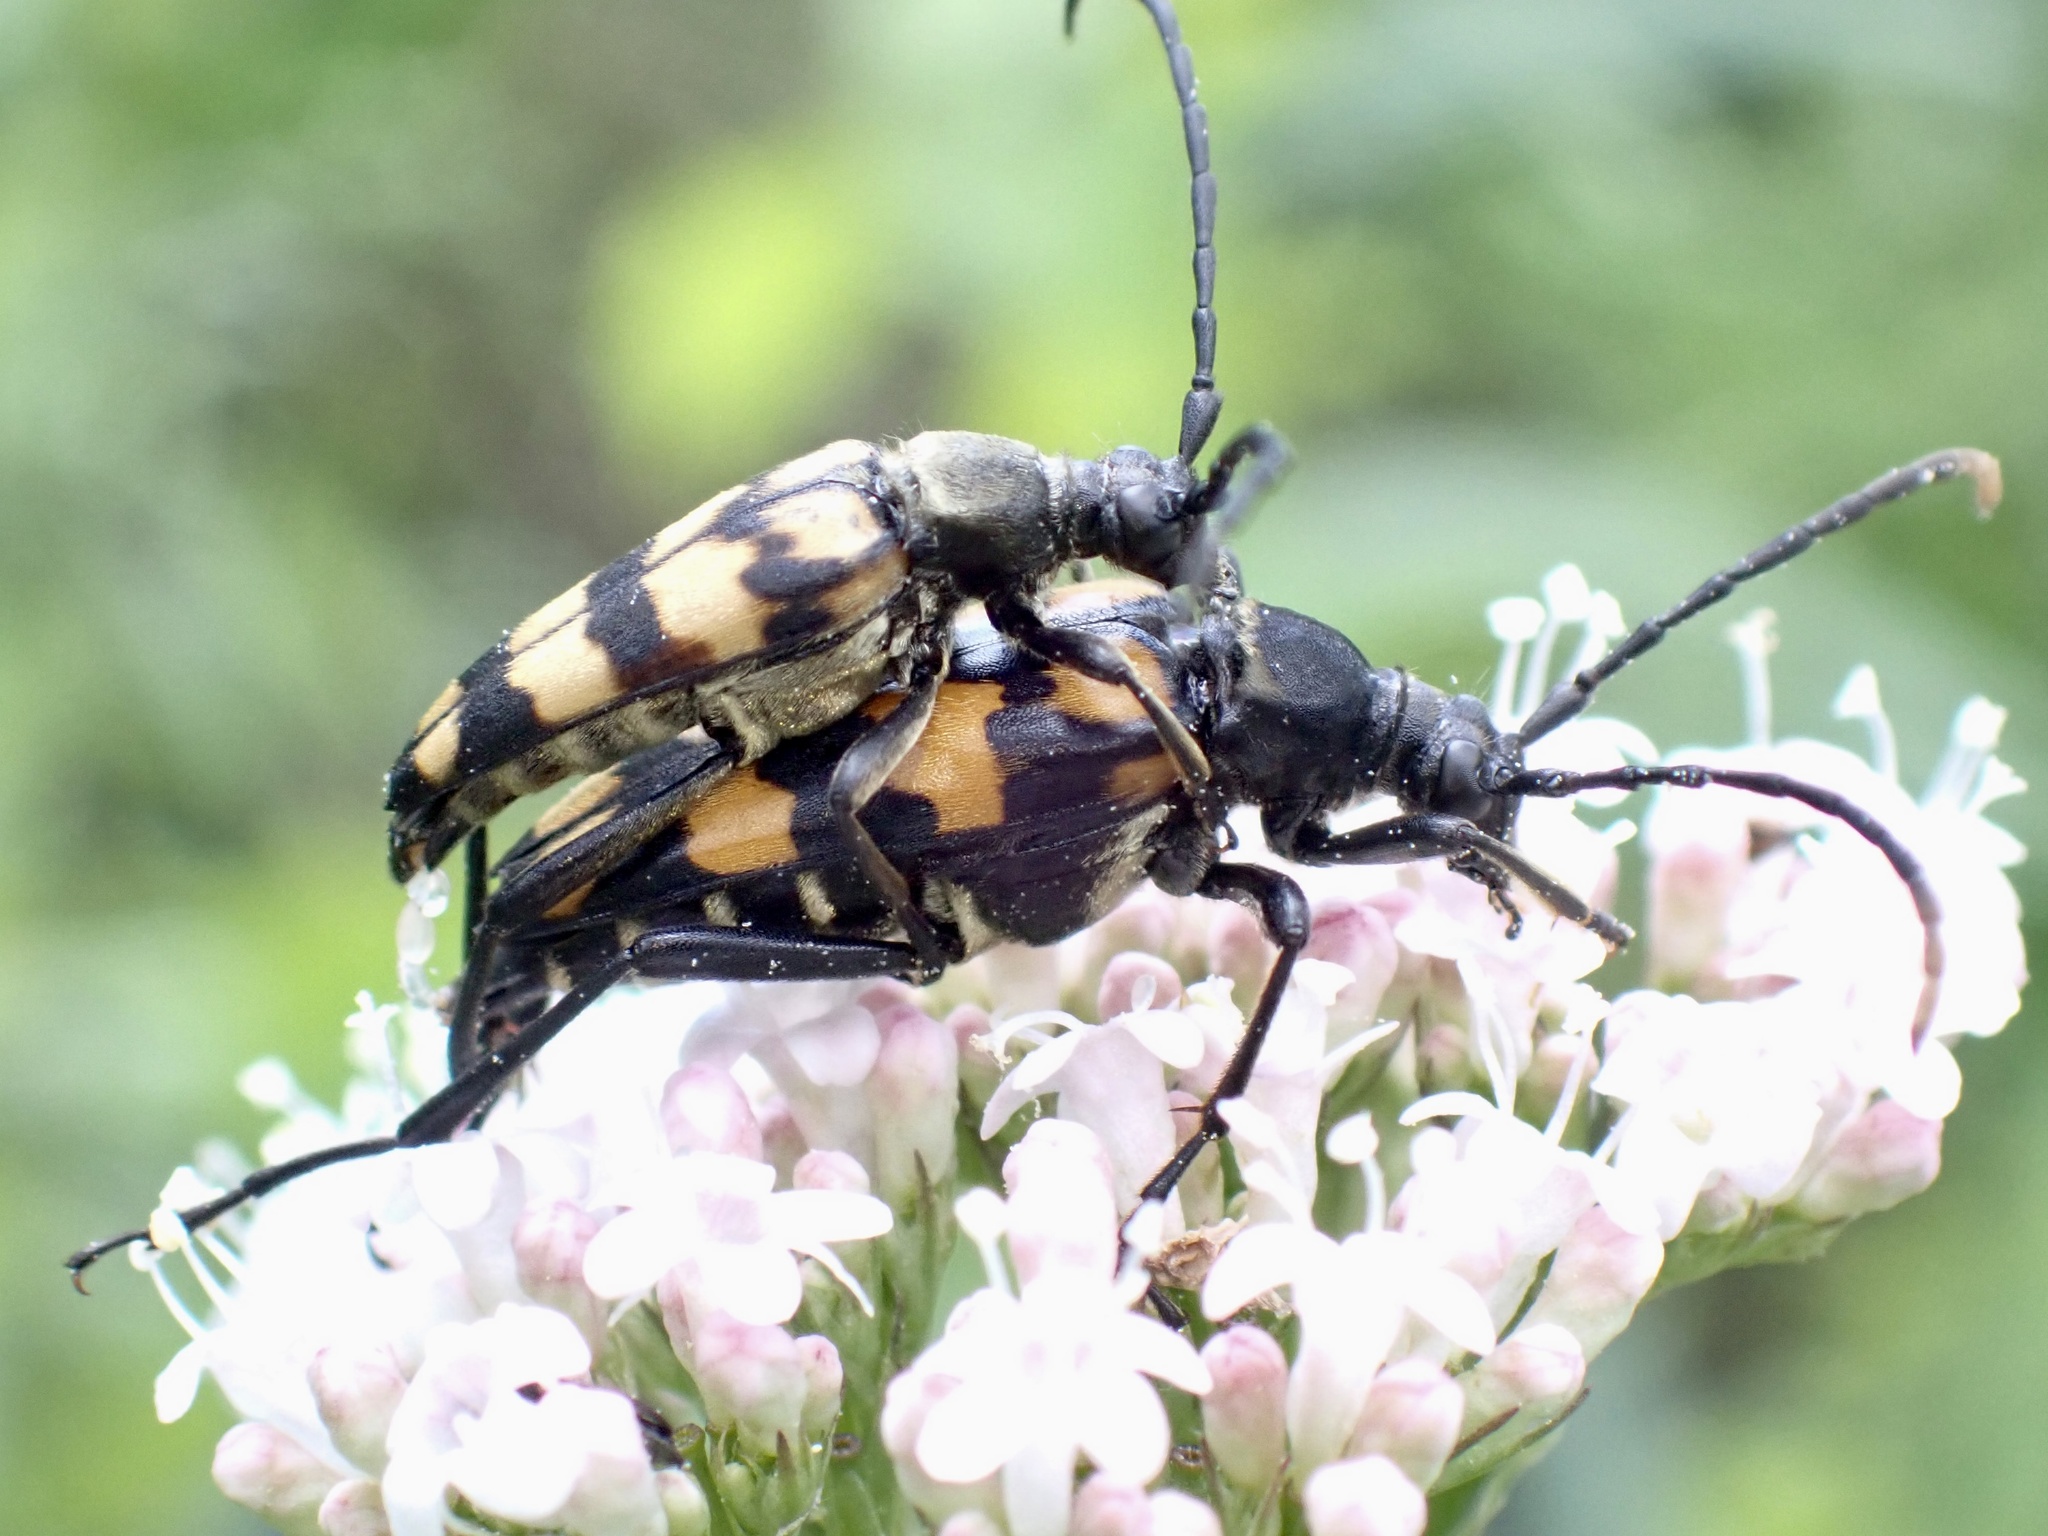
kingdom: Animalia
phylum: Arthropoda
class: Insecta
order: Coleoptera
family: Cerambycidae
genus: Leptura
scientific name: Leptura quadrifasciata
